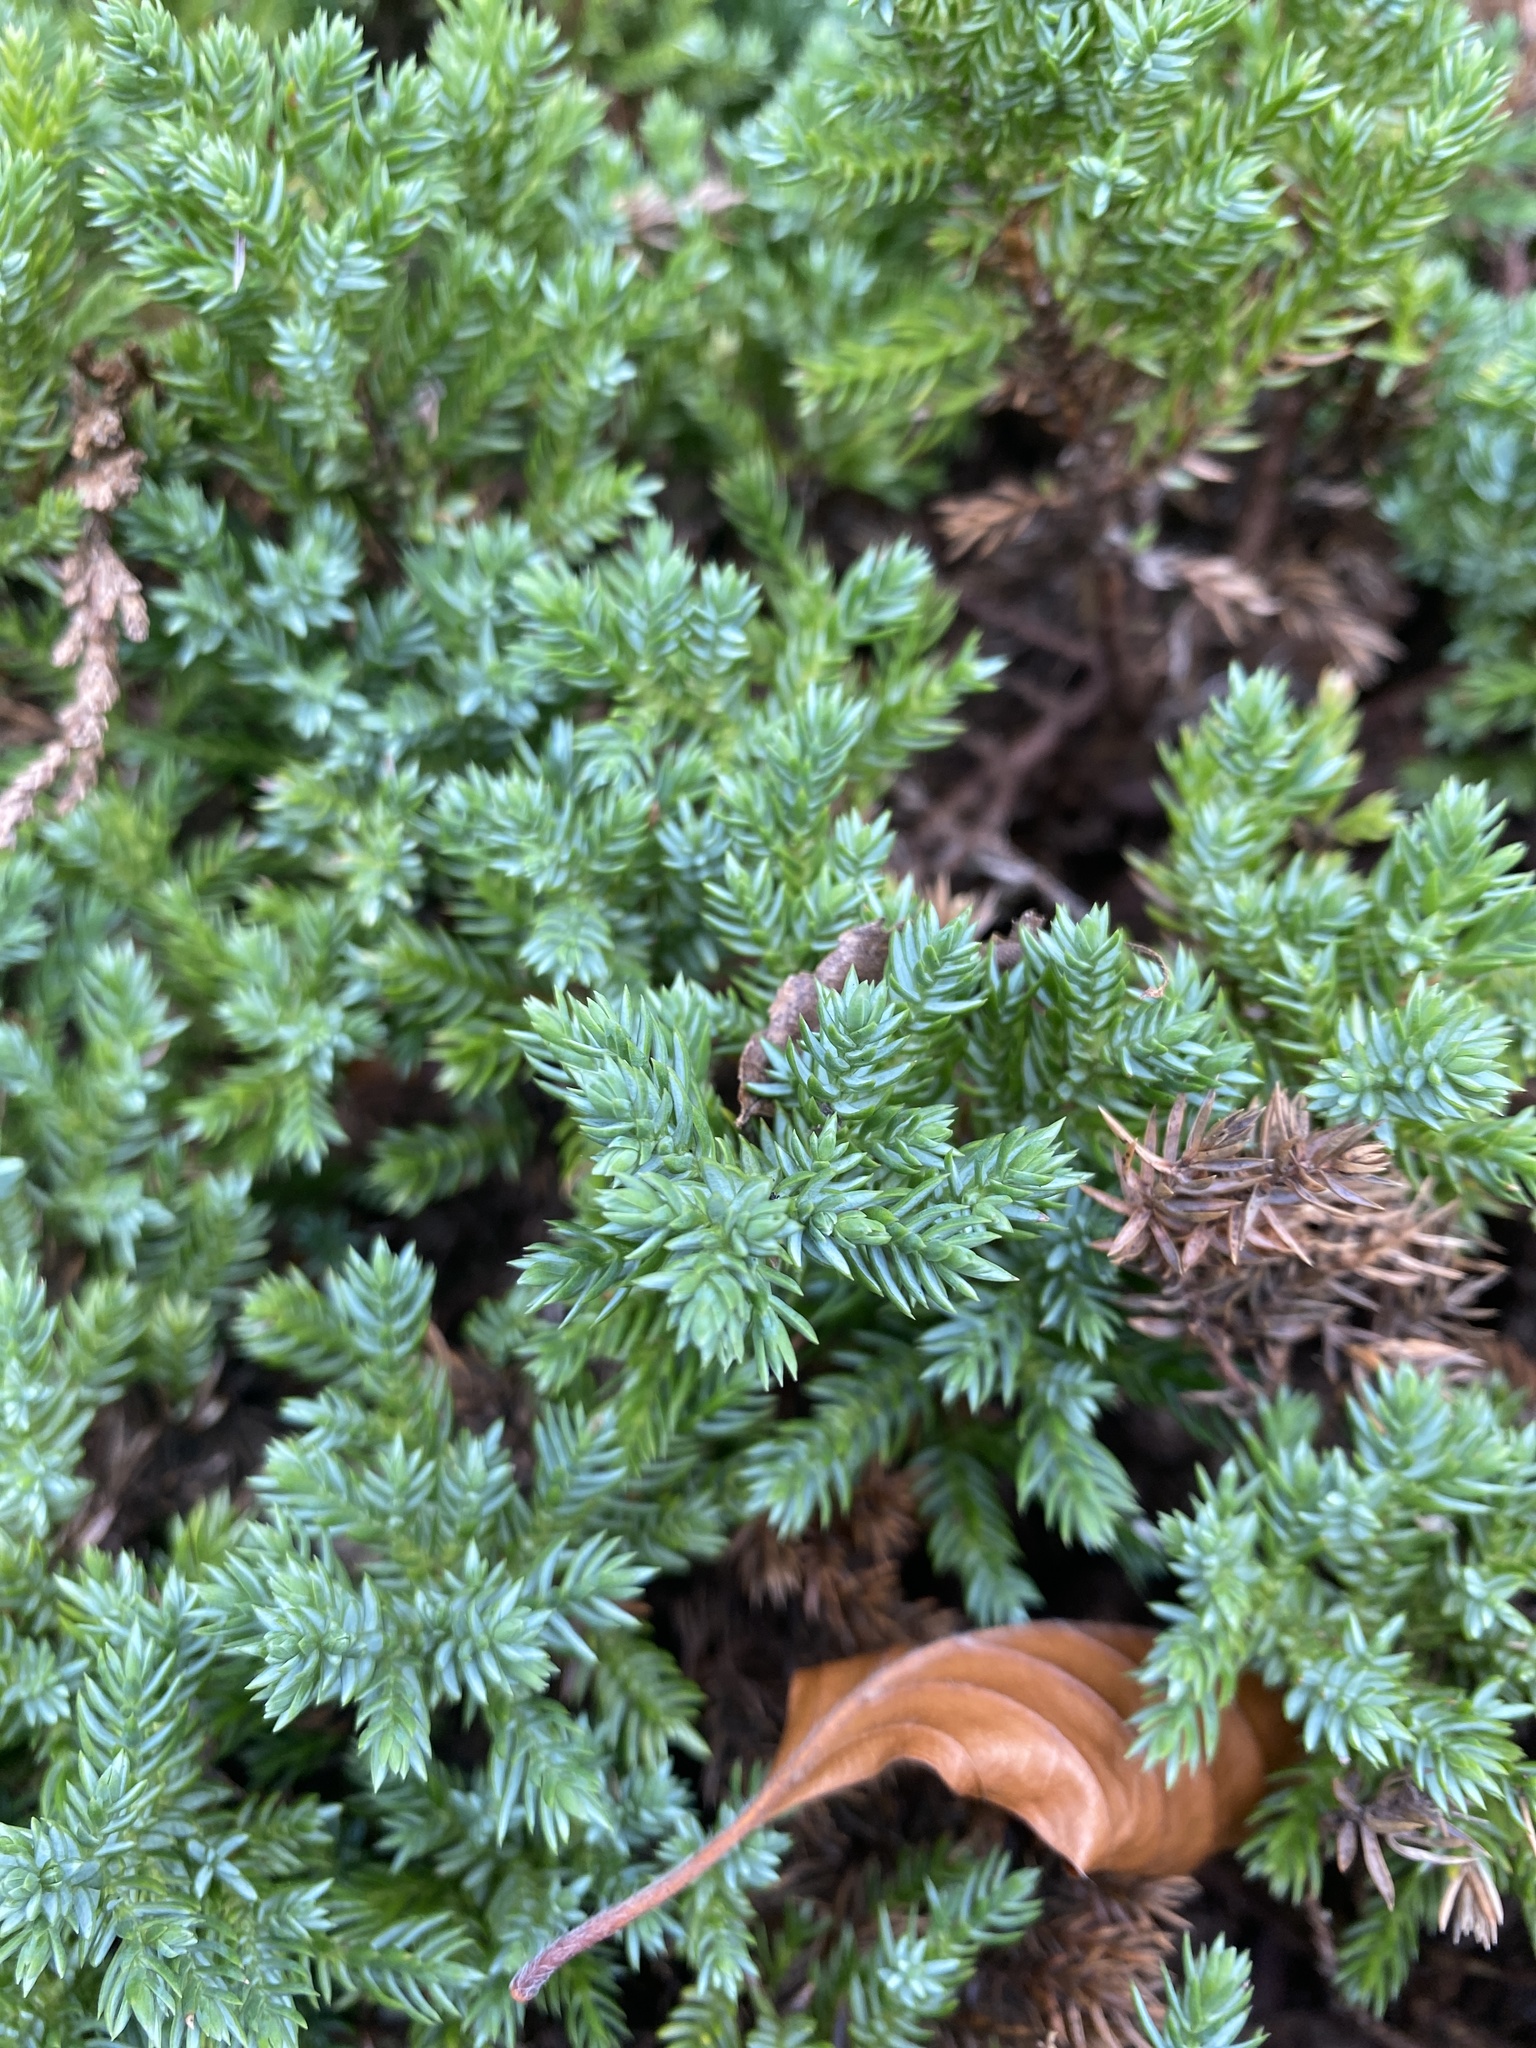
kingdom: Plantae
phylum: Tracheophyta
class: Pinopsida
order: Pinales
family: Cupressaceae
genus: Juniperus
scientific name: Juniperus communis
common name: Common juniper
